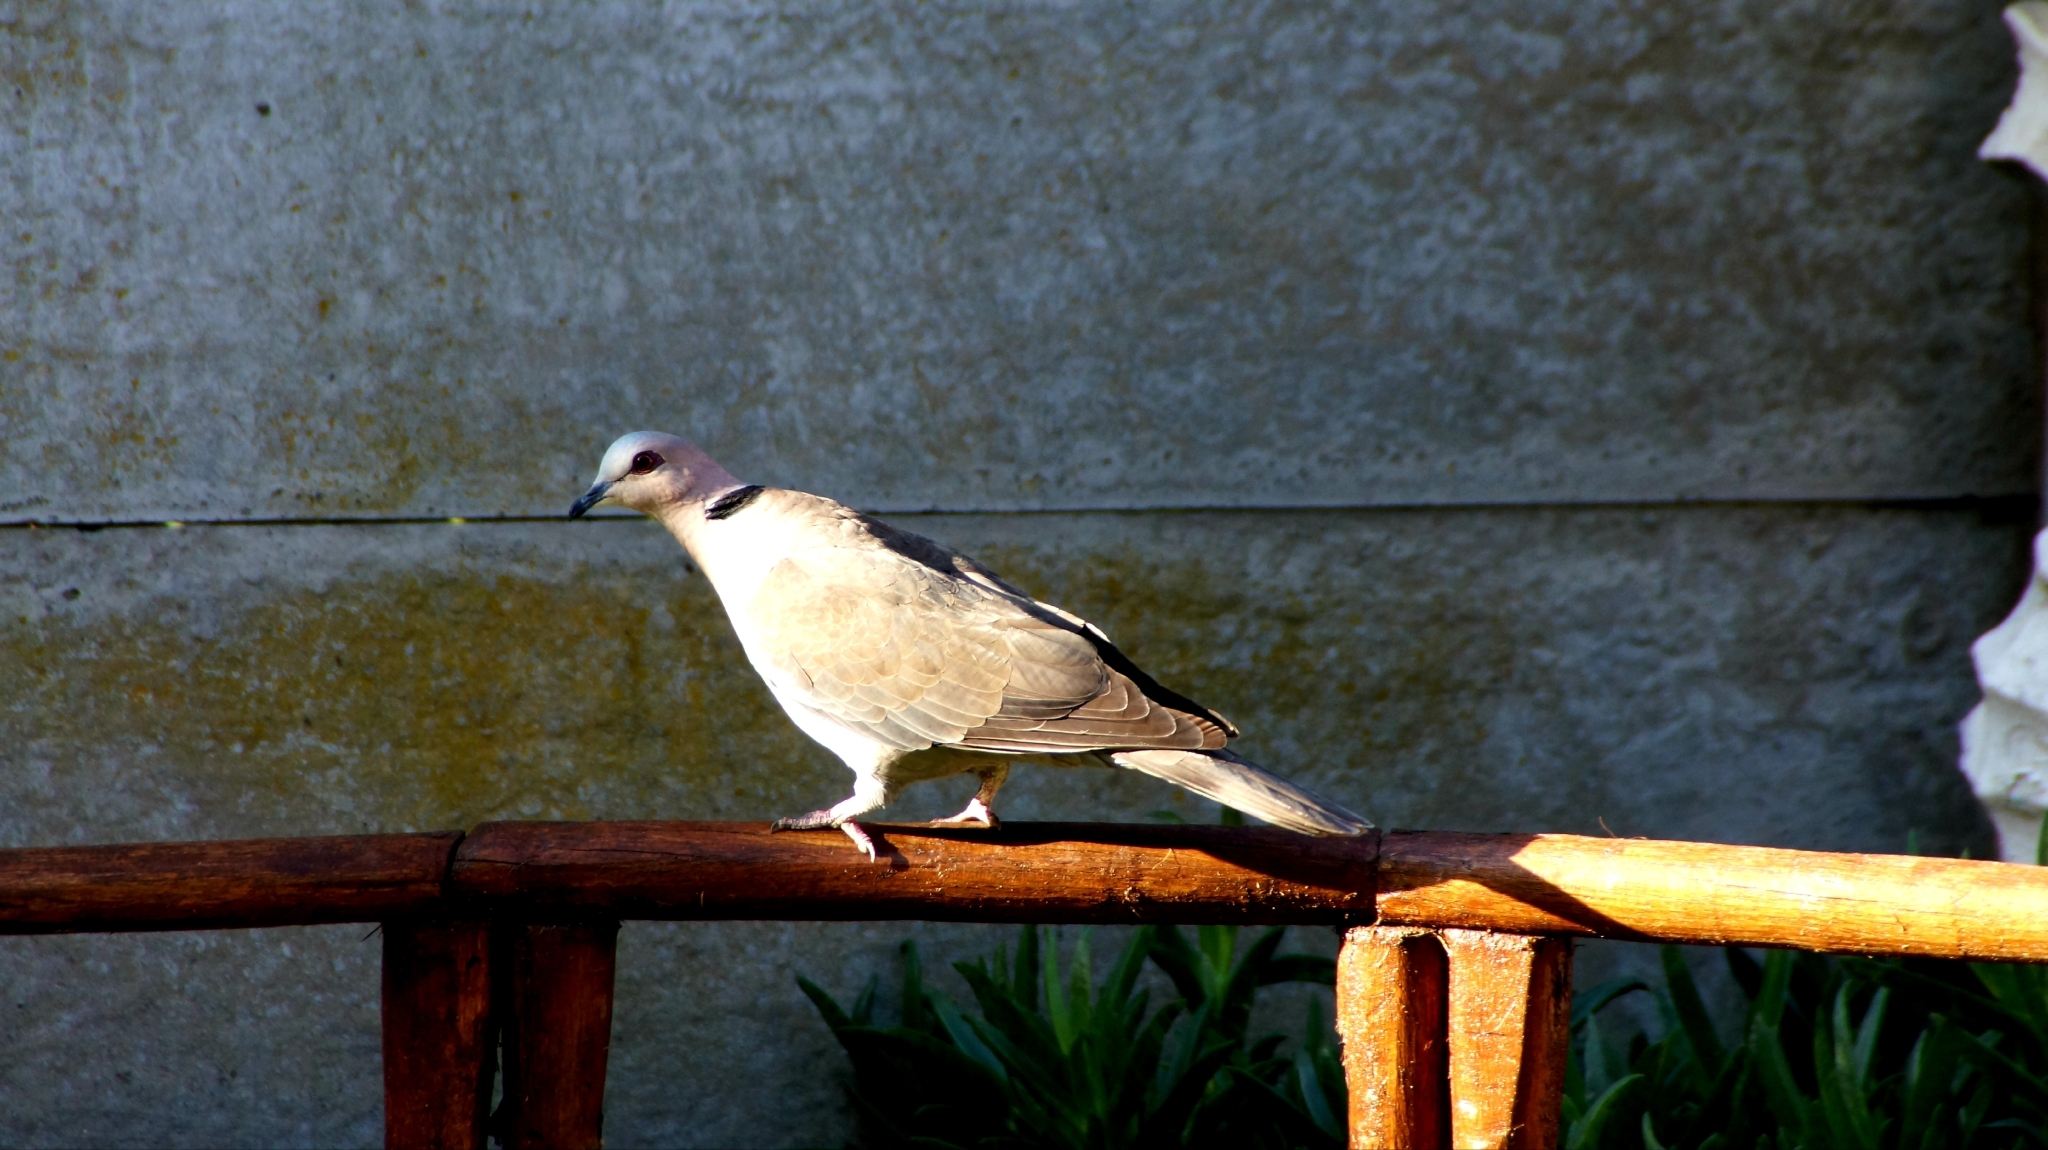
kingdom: Animalia
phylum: Chordata
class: Aves
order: Columbiformes
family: Columbidae
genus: Streptopelia
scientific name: Streptopelia semitorquata
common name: Red-eyed dove
